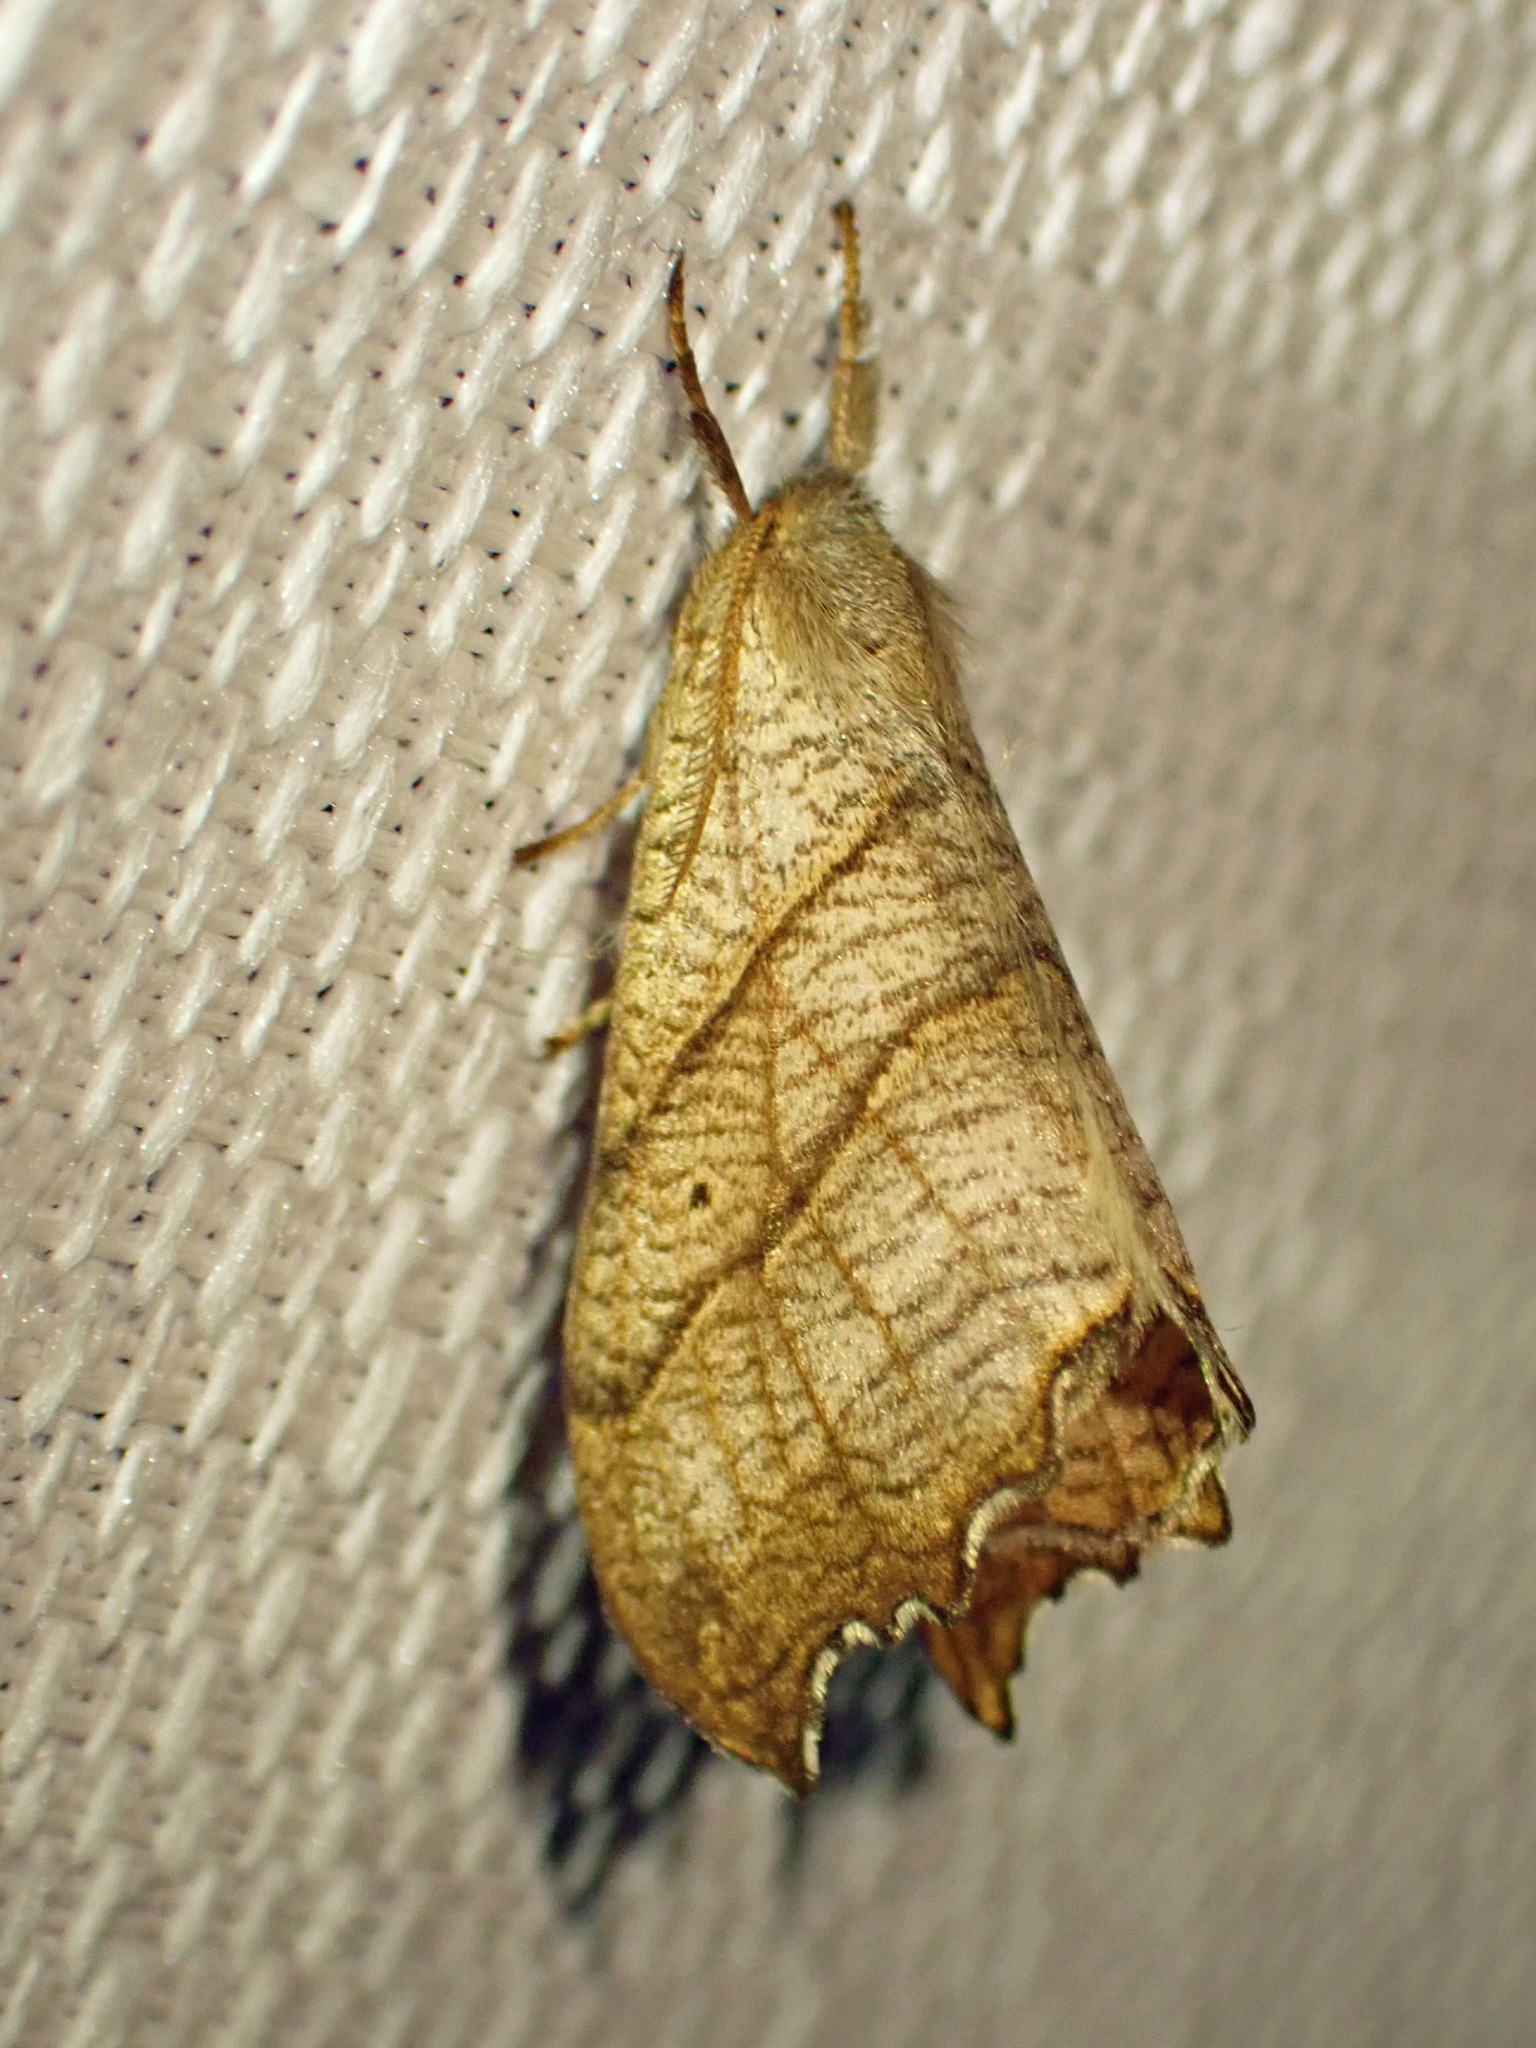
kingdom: Animalia
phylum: Arthropoda
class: Insecta
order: Lepidoptera
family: Drepanidae
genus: Falcaria
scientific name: Falcaria bilineata
